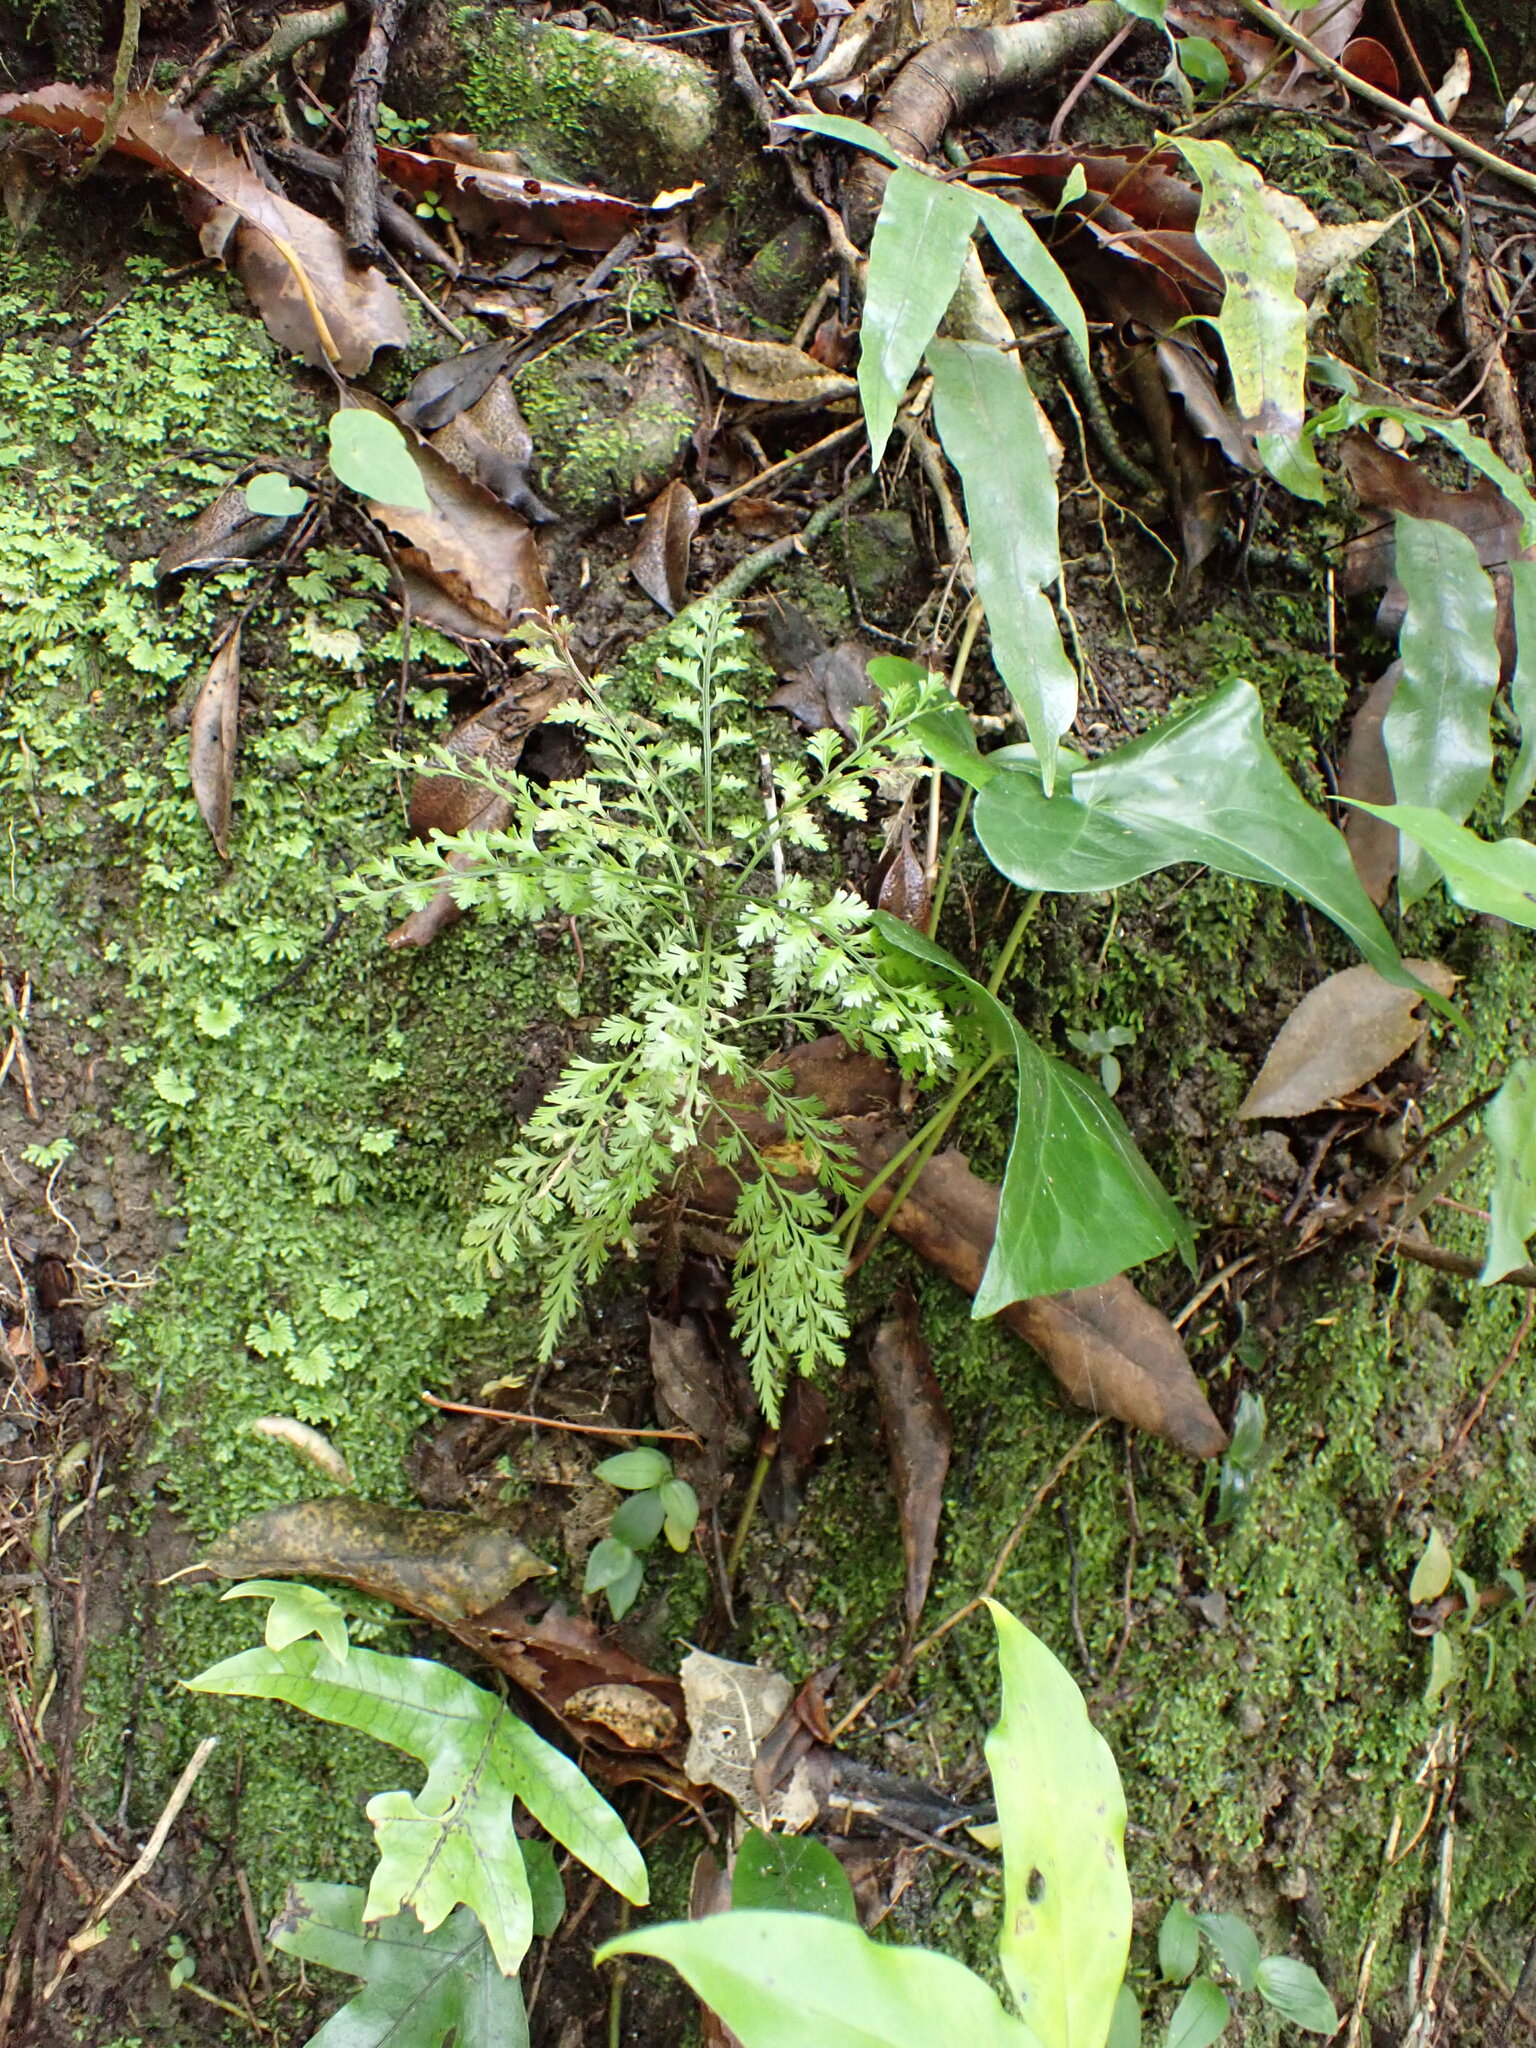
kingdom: Plantae
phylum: Tracheophyta
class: Pinopsida
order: Pinales
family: Phyllocladaceae
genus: Phyllocladus
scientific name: Phyllocladus trichomanoides
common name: Celery pine
